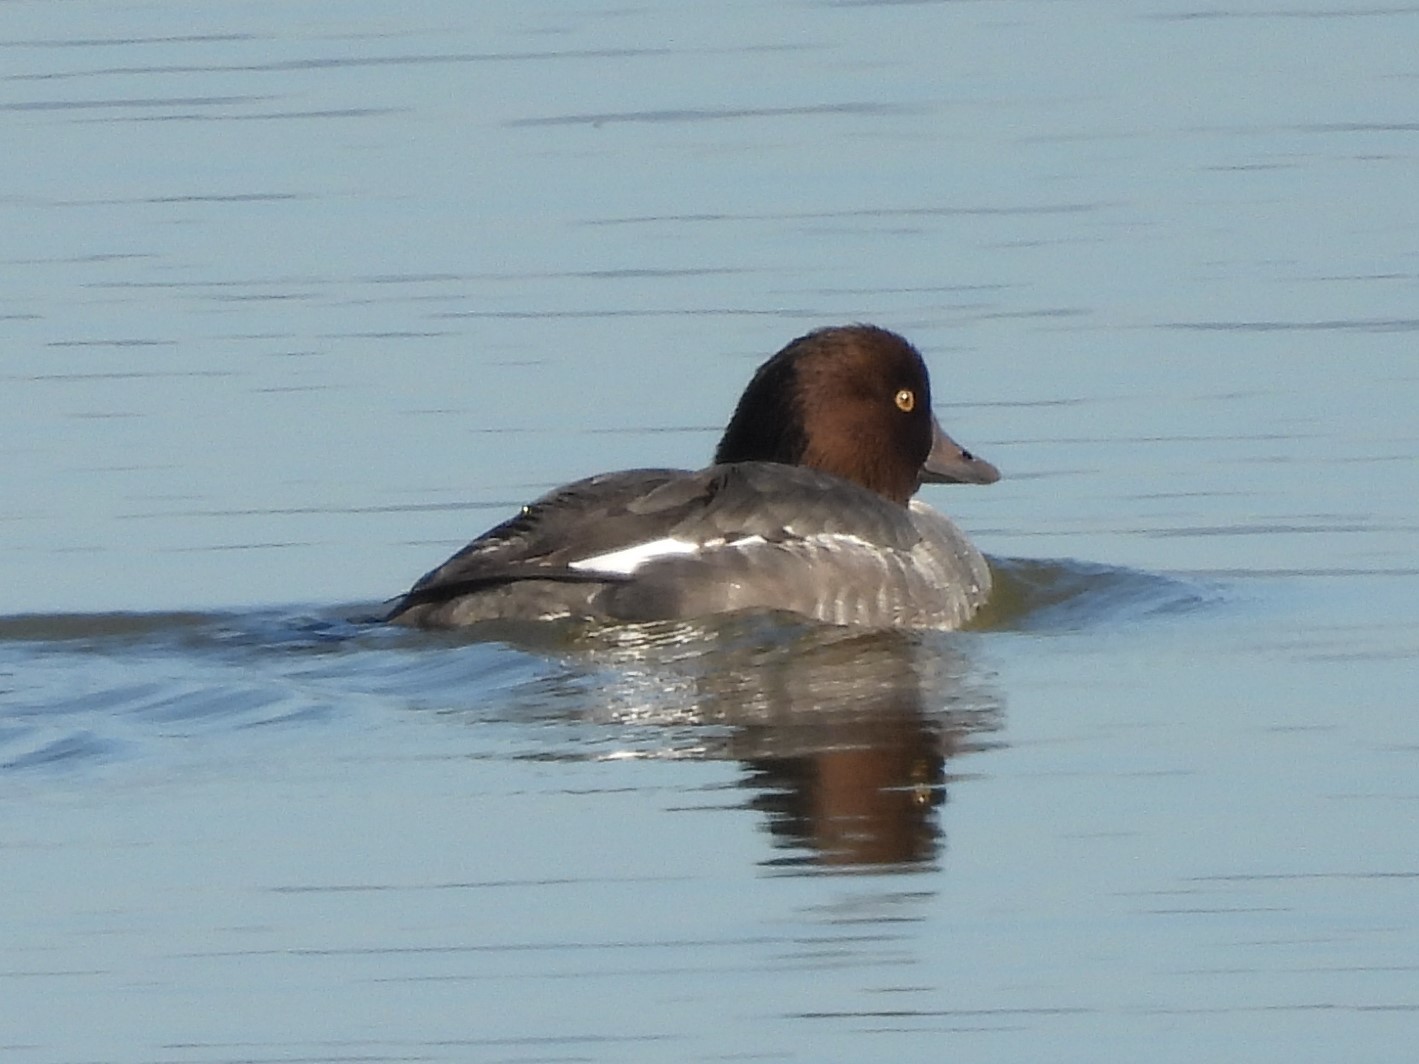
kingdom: Animalia
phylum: Chordata
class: Aves
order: Anseriformes
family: Anatidae
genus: Bucephala
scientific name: Bucephala clangula
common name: Common goldeneye
